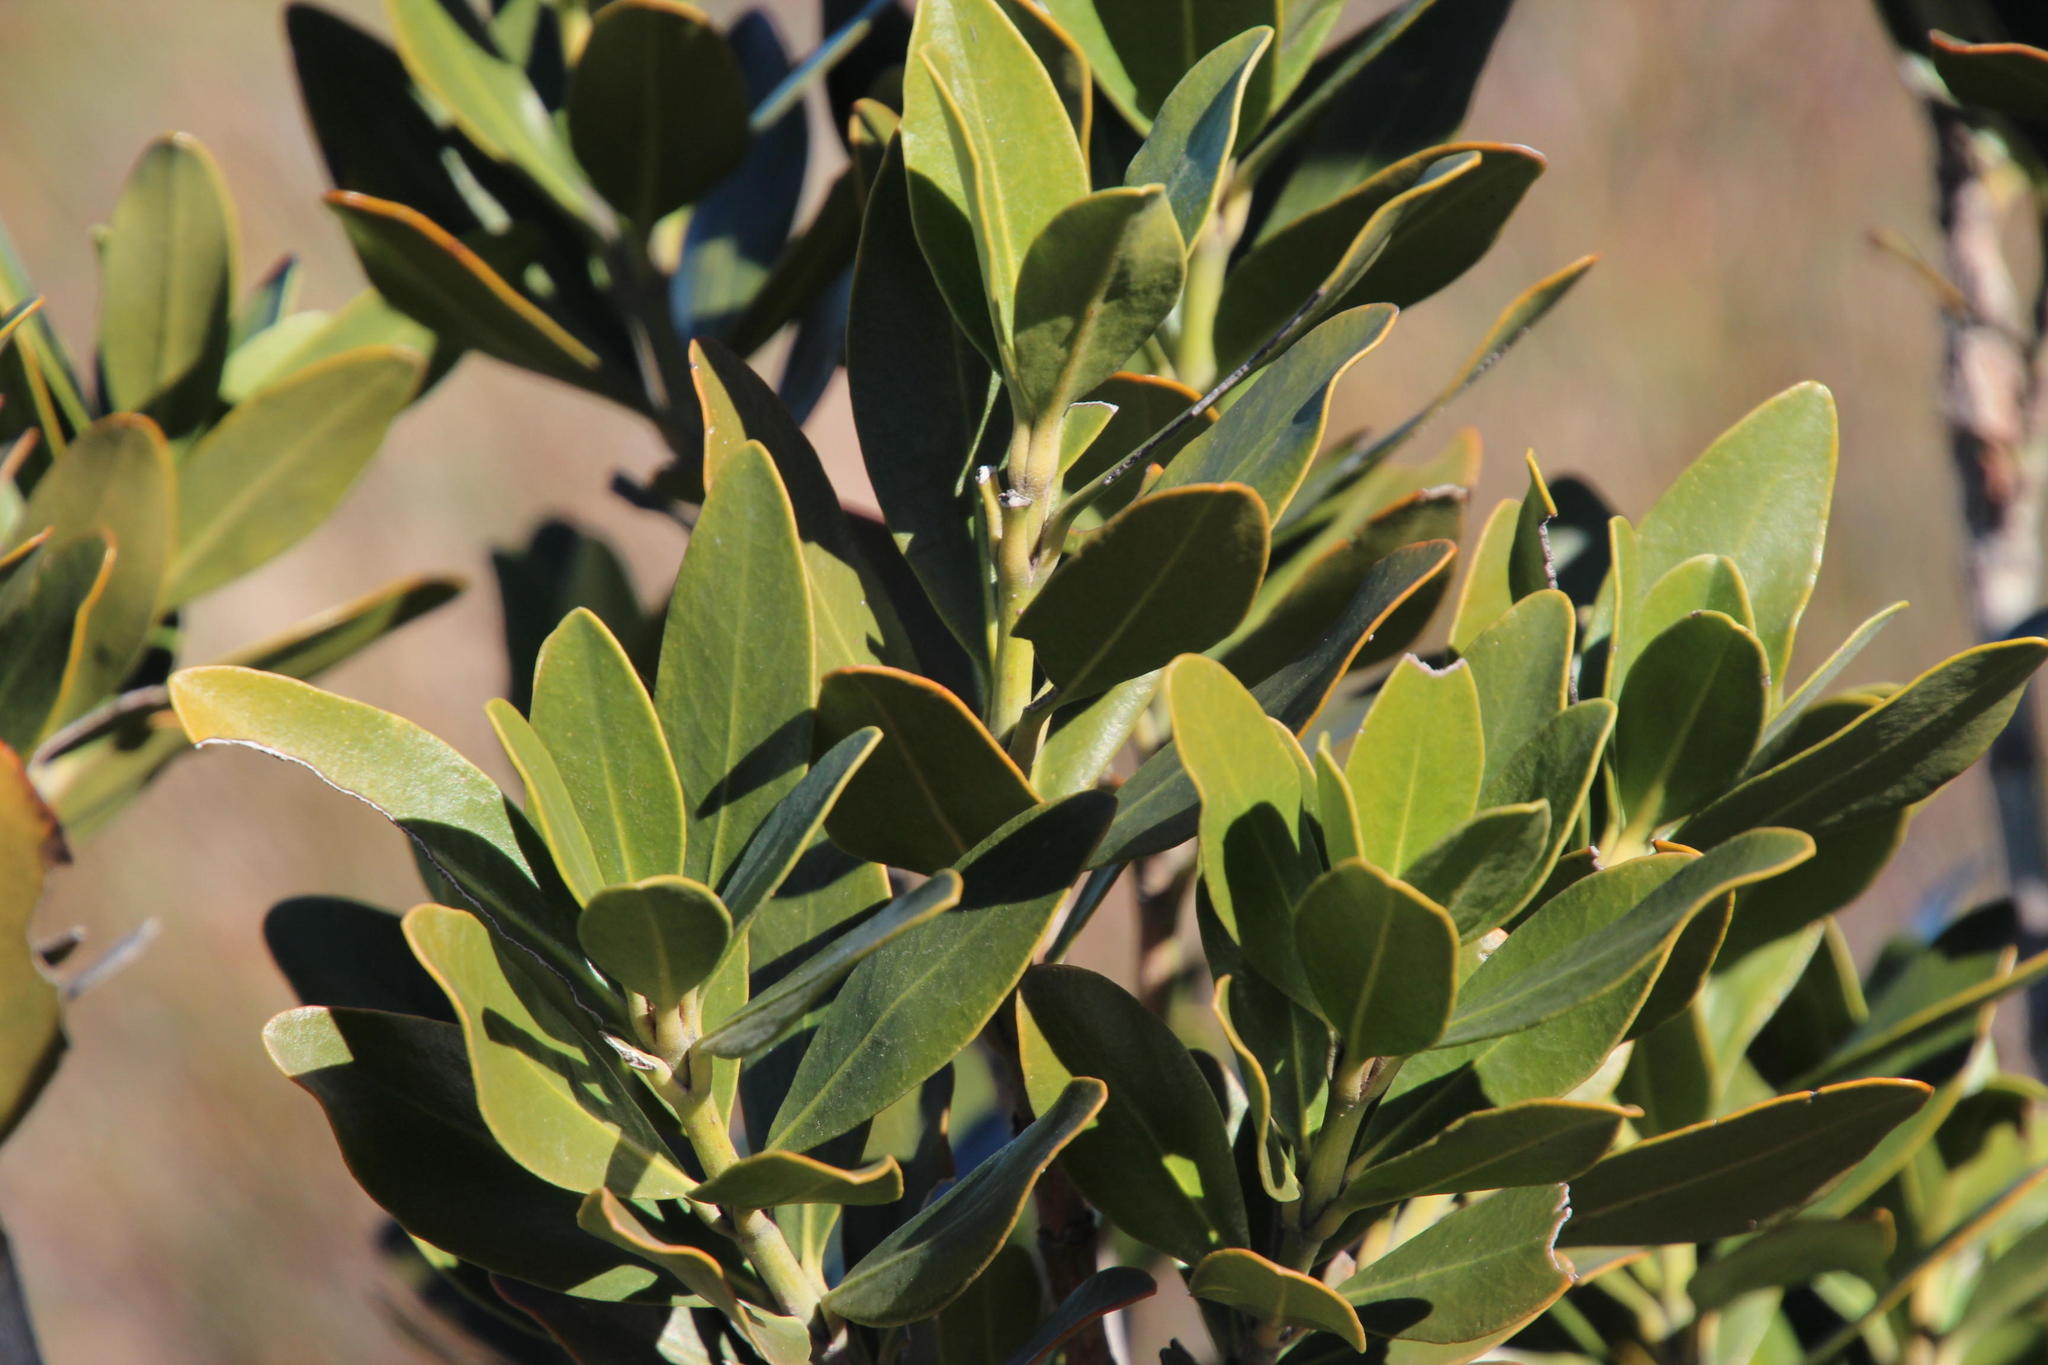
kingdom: Plantae
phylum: Tracheophyta
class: Magnoliopsida
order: Malpighiales
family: Picrodendraceae
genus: Hyaenanche
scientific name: Hyaenanche globosa
